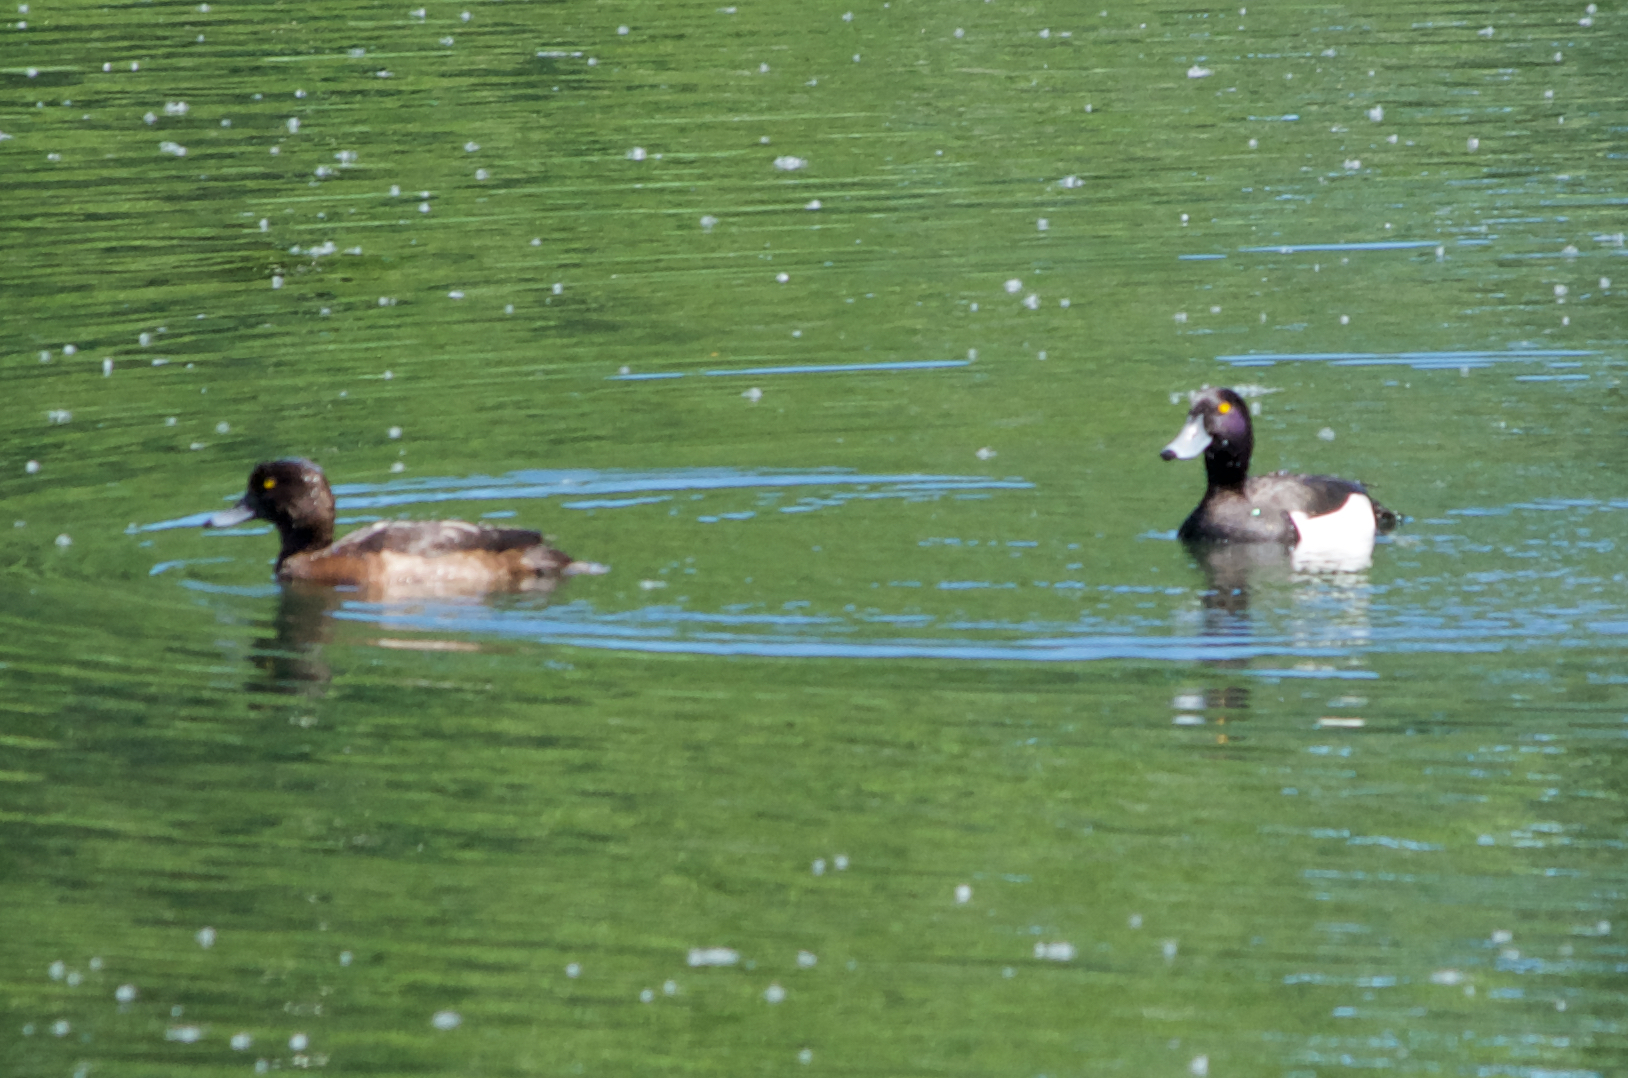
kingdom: Animalia
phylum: Chordata
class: Aves
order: Anseriformes
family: Anatidae
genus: Aythya
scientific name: Aythya fuligula
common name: Tufted duck
